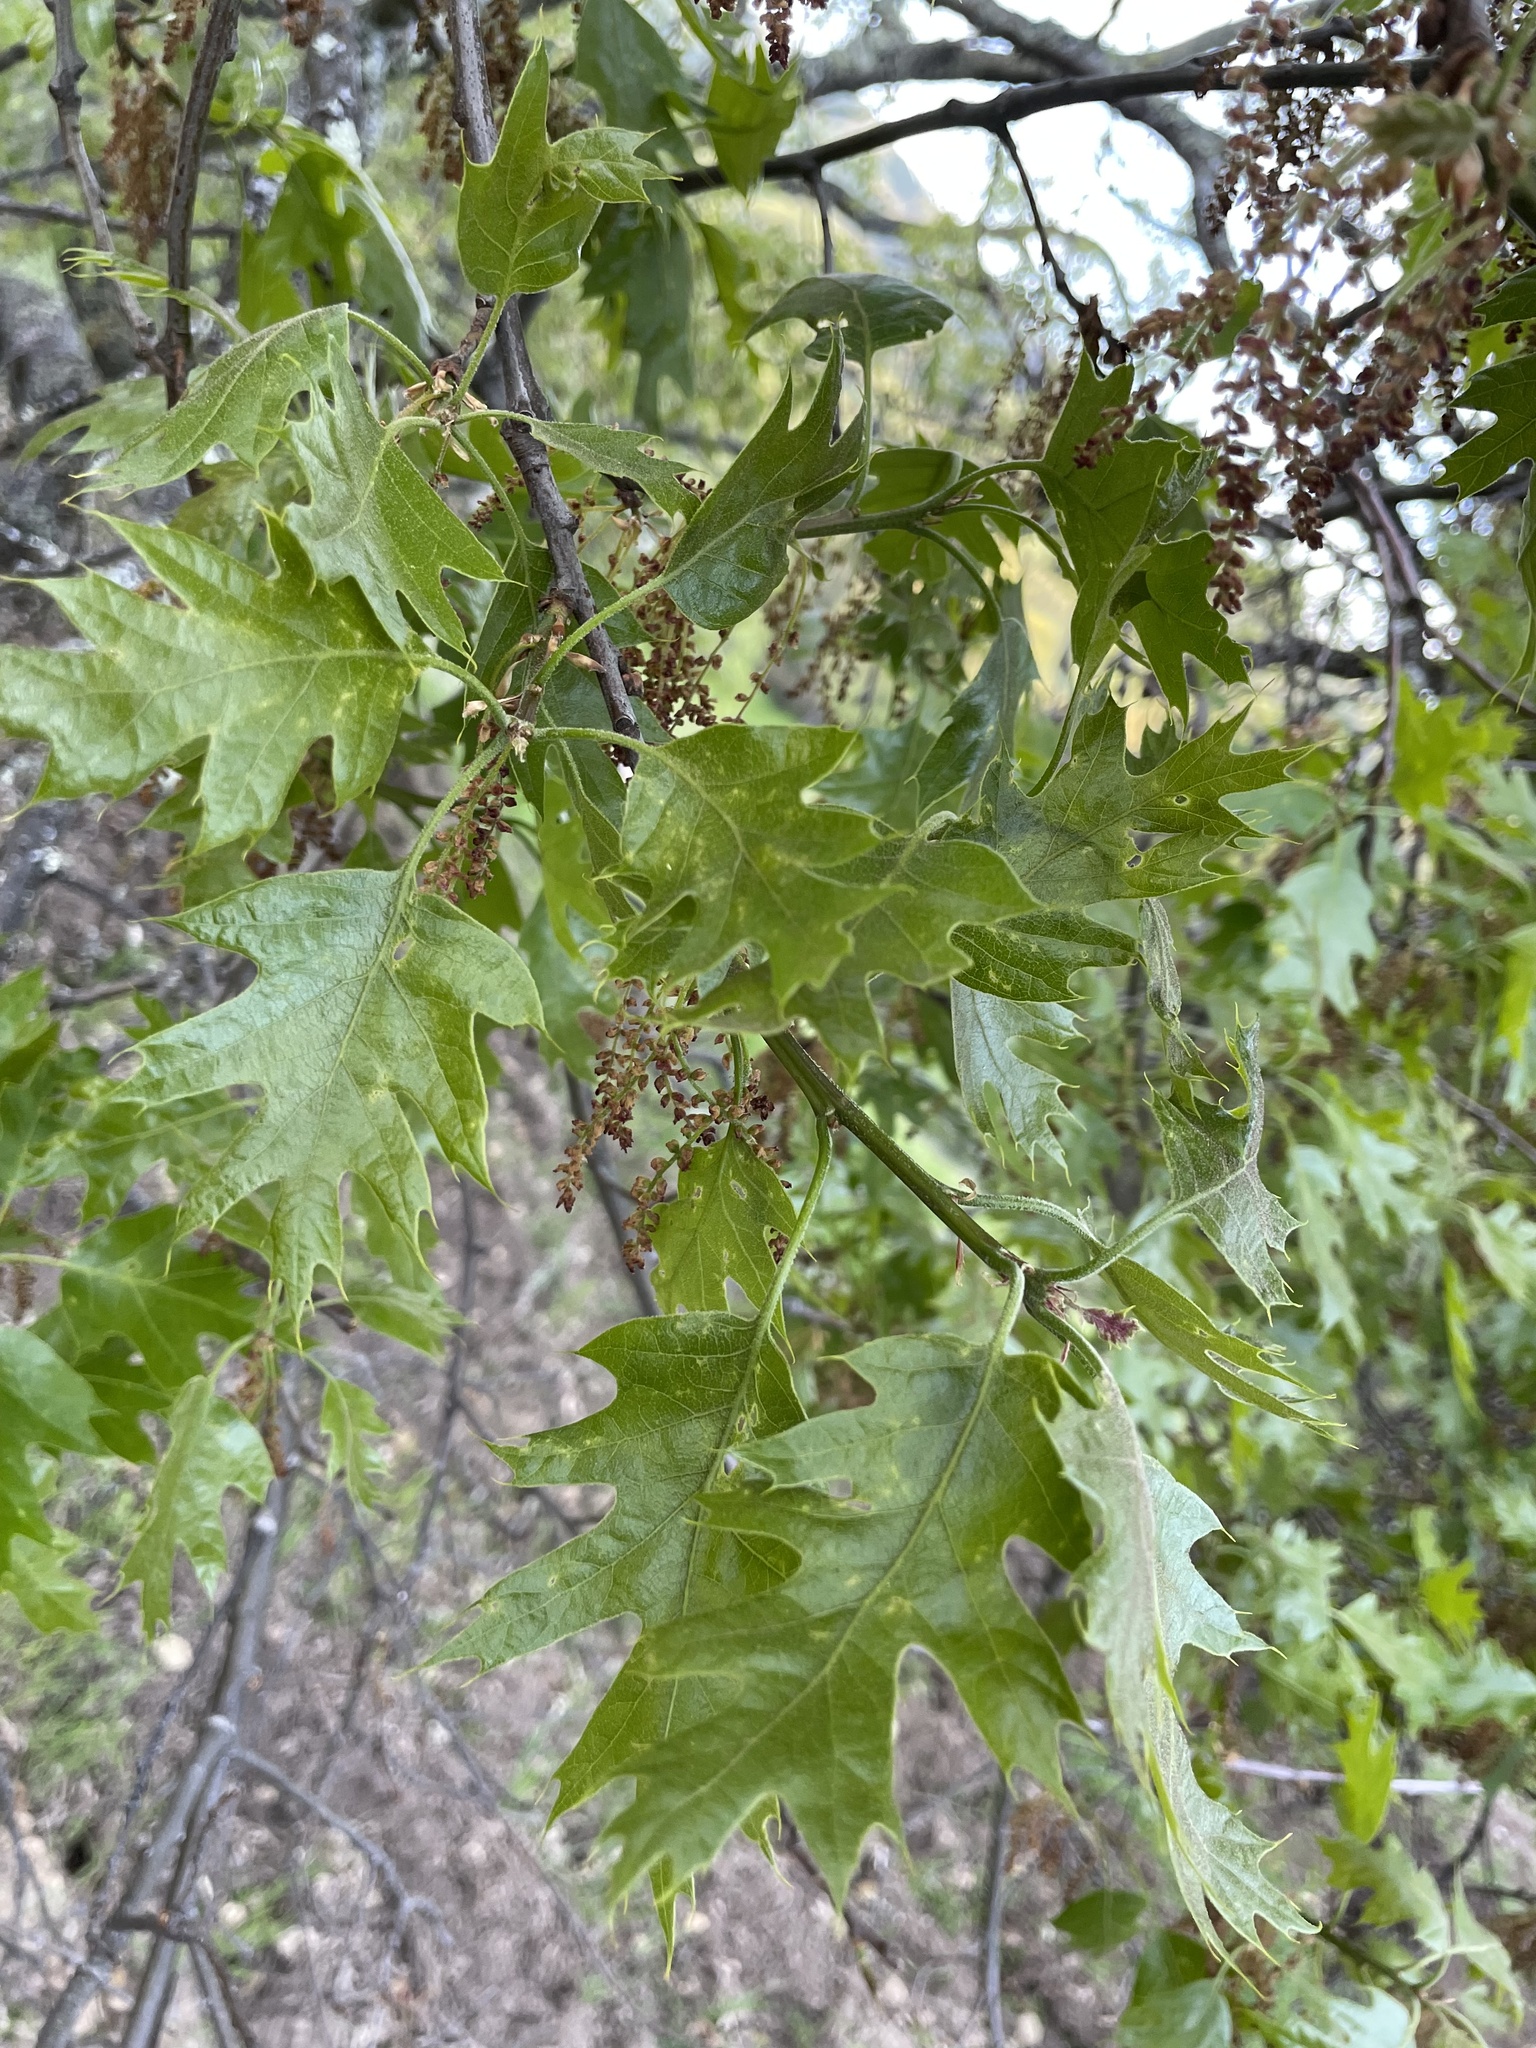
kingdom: Plantae
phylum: Tracheophyta
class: Magnoliopsida
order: Fagales
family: Fagaceae
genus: Quercus
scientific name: Quercus kelloggii
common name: California black oak
